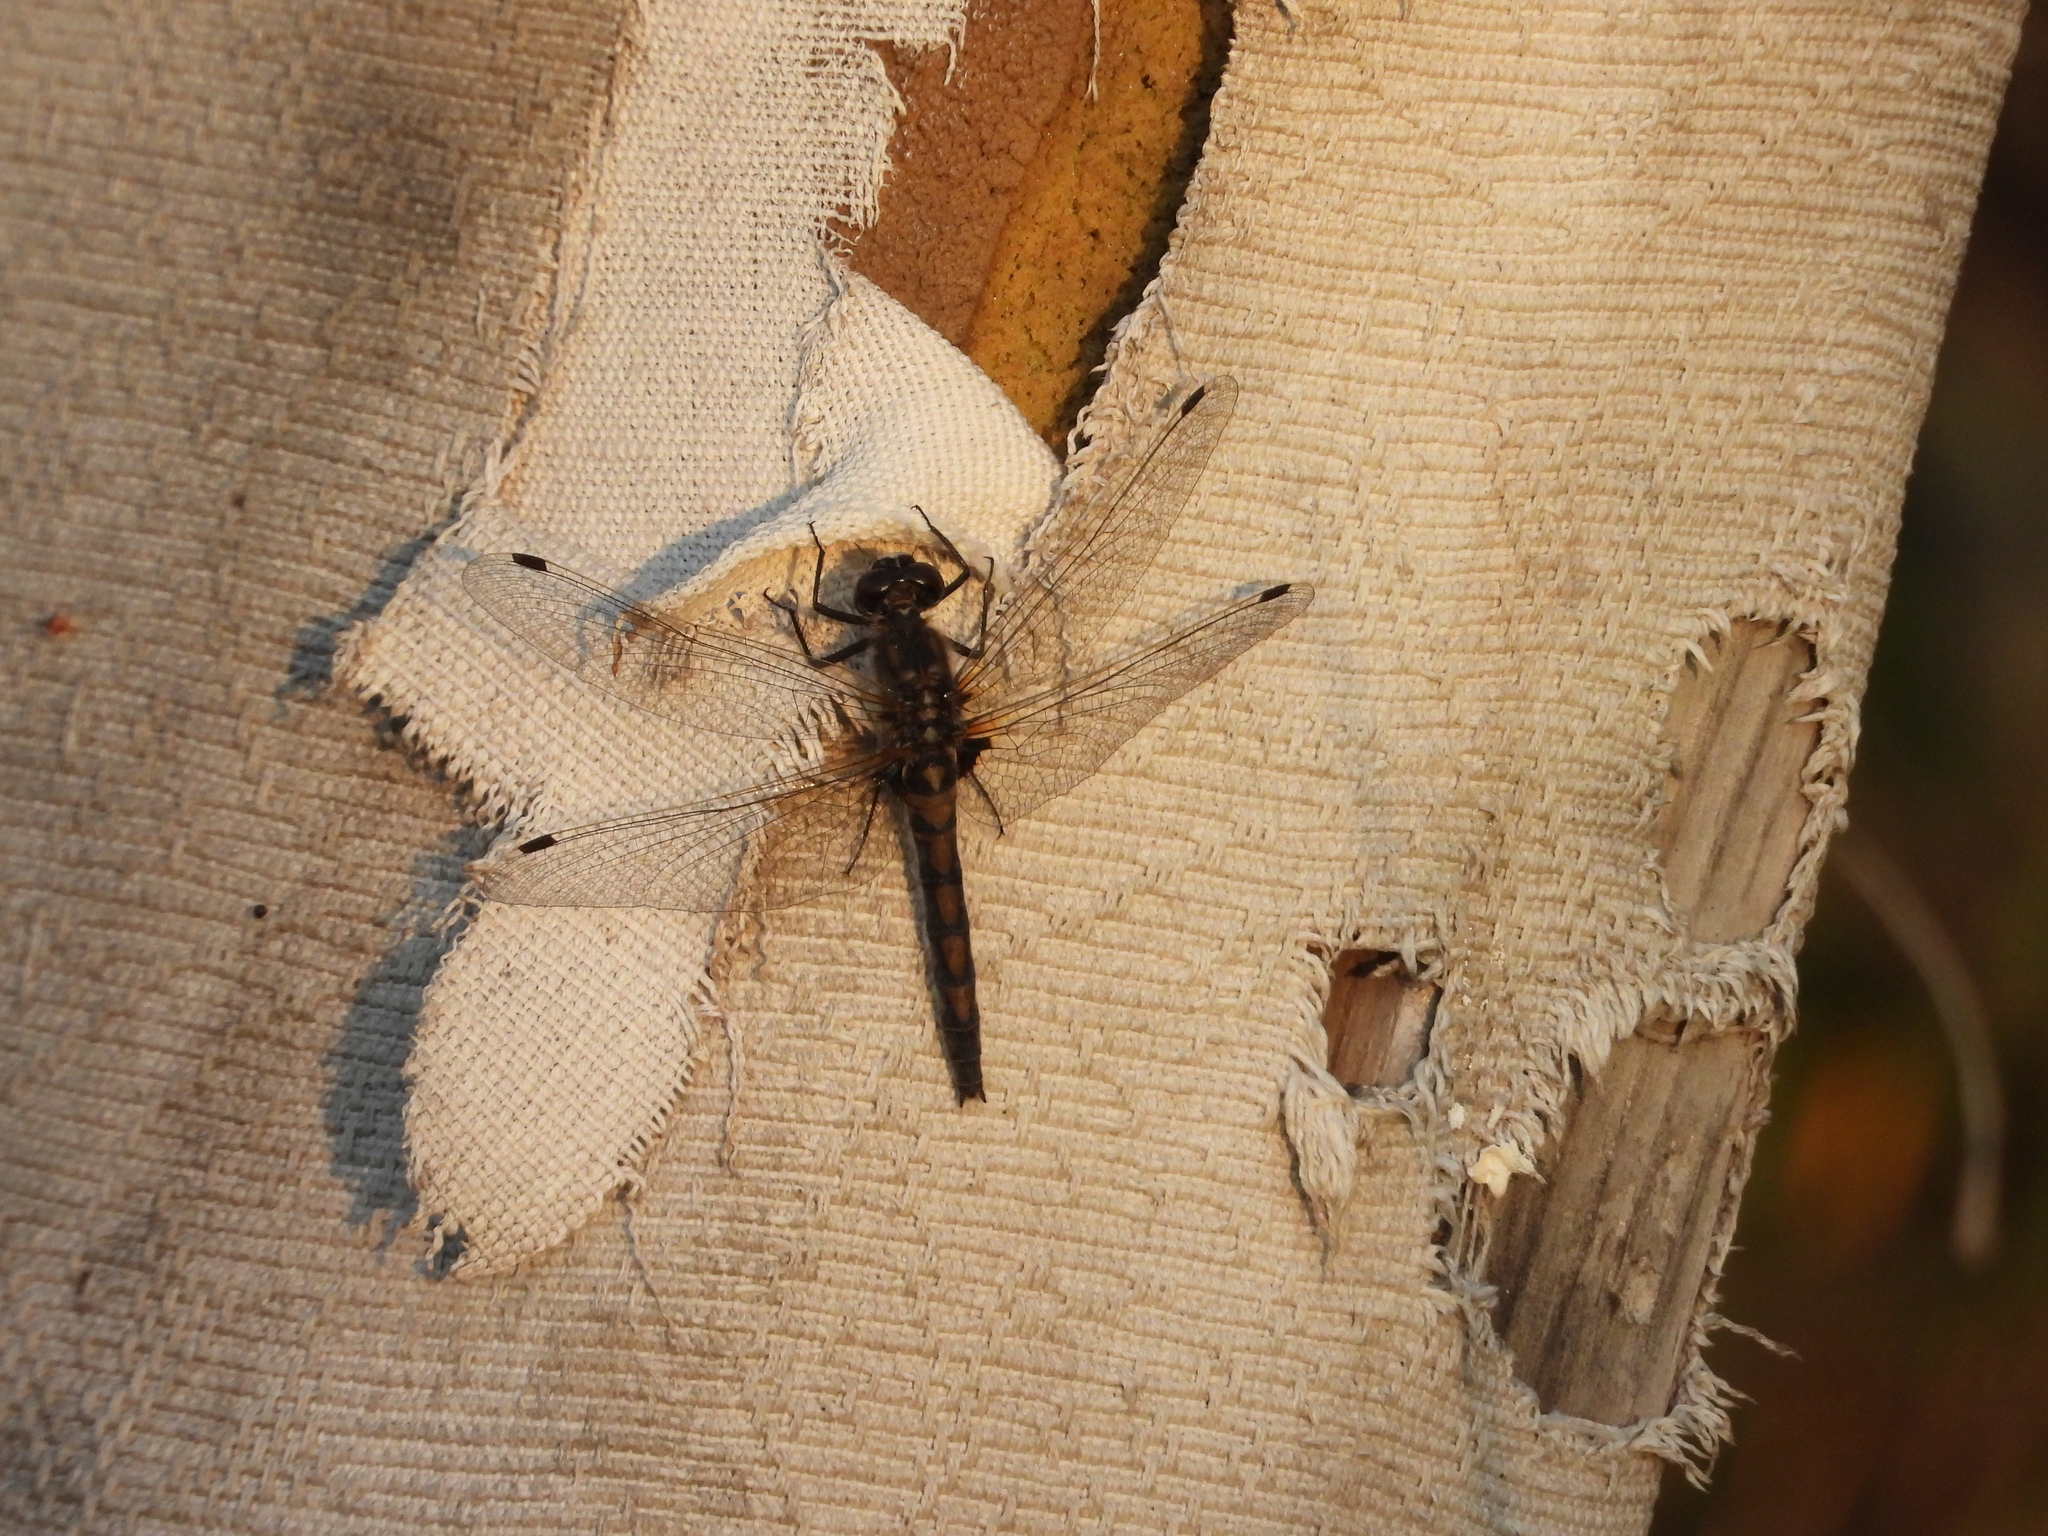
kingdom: Animalia
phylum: Arthropoda
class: Insecta
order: Odonata
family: Libellulidae
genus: Leucorrhinia
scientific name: Leucorrhinia rubicunda
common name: Ruby whiteface
